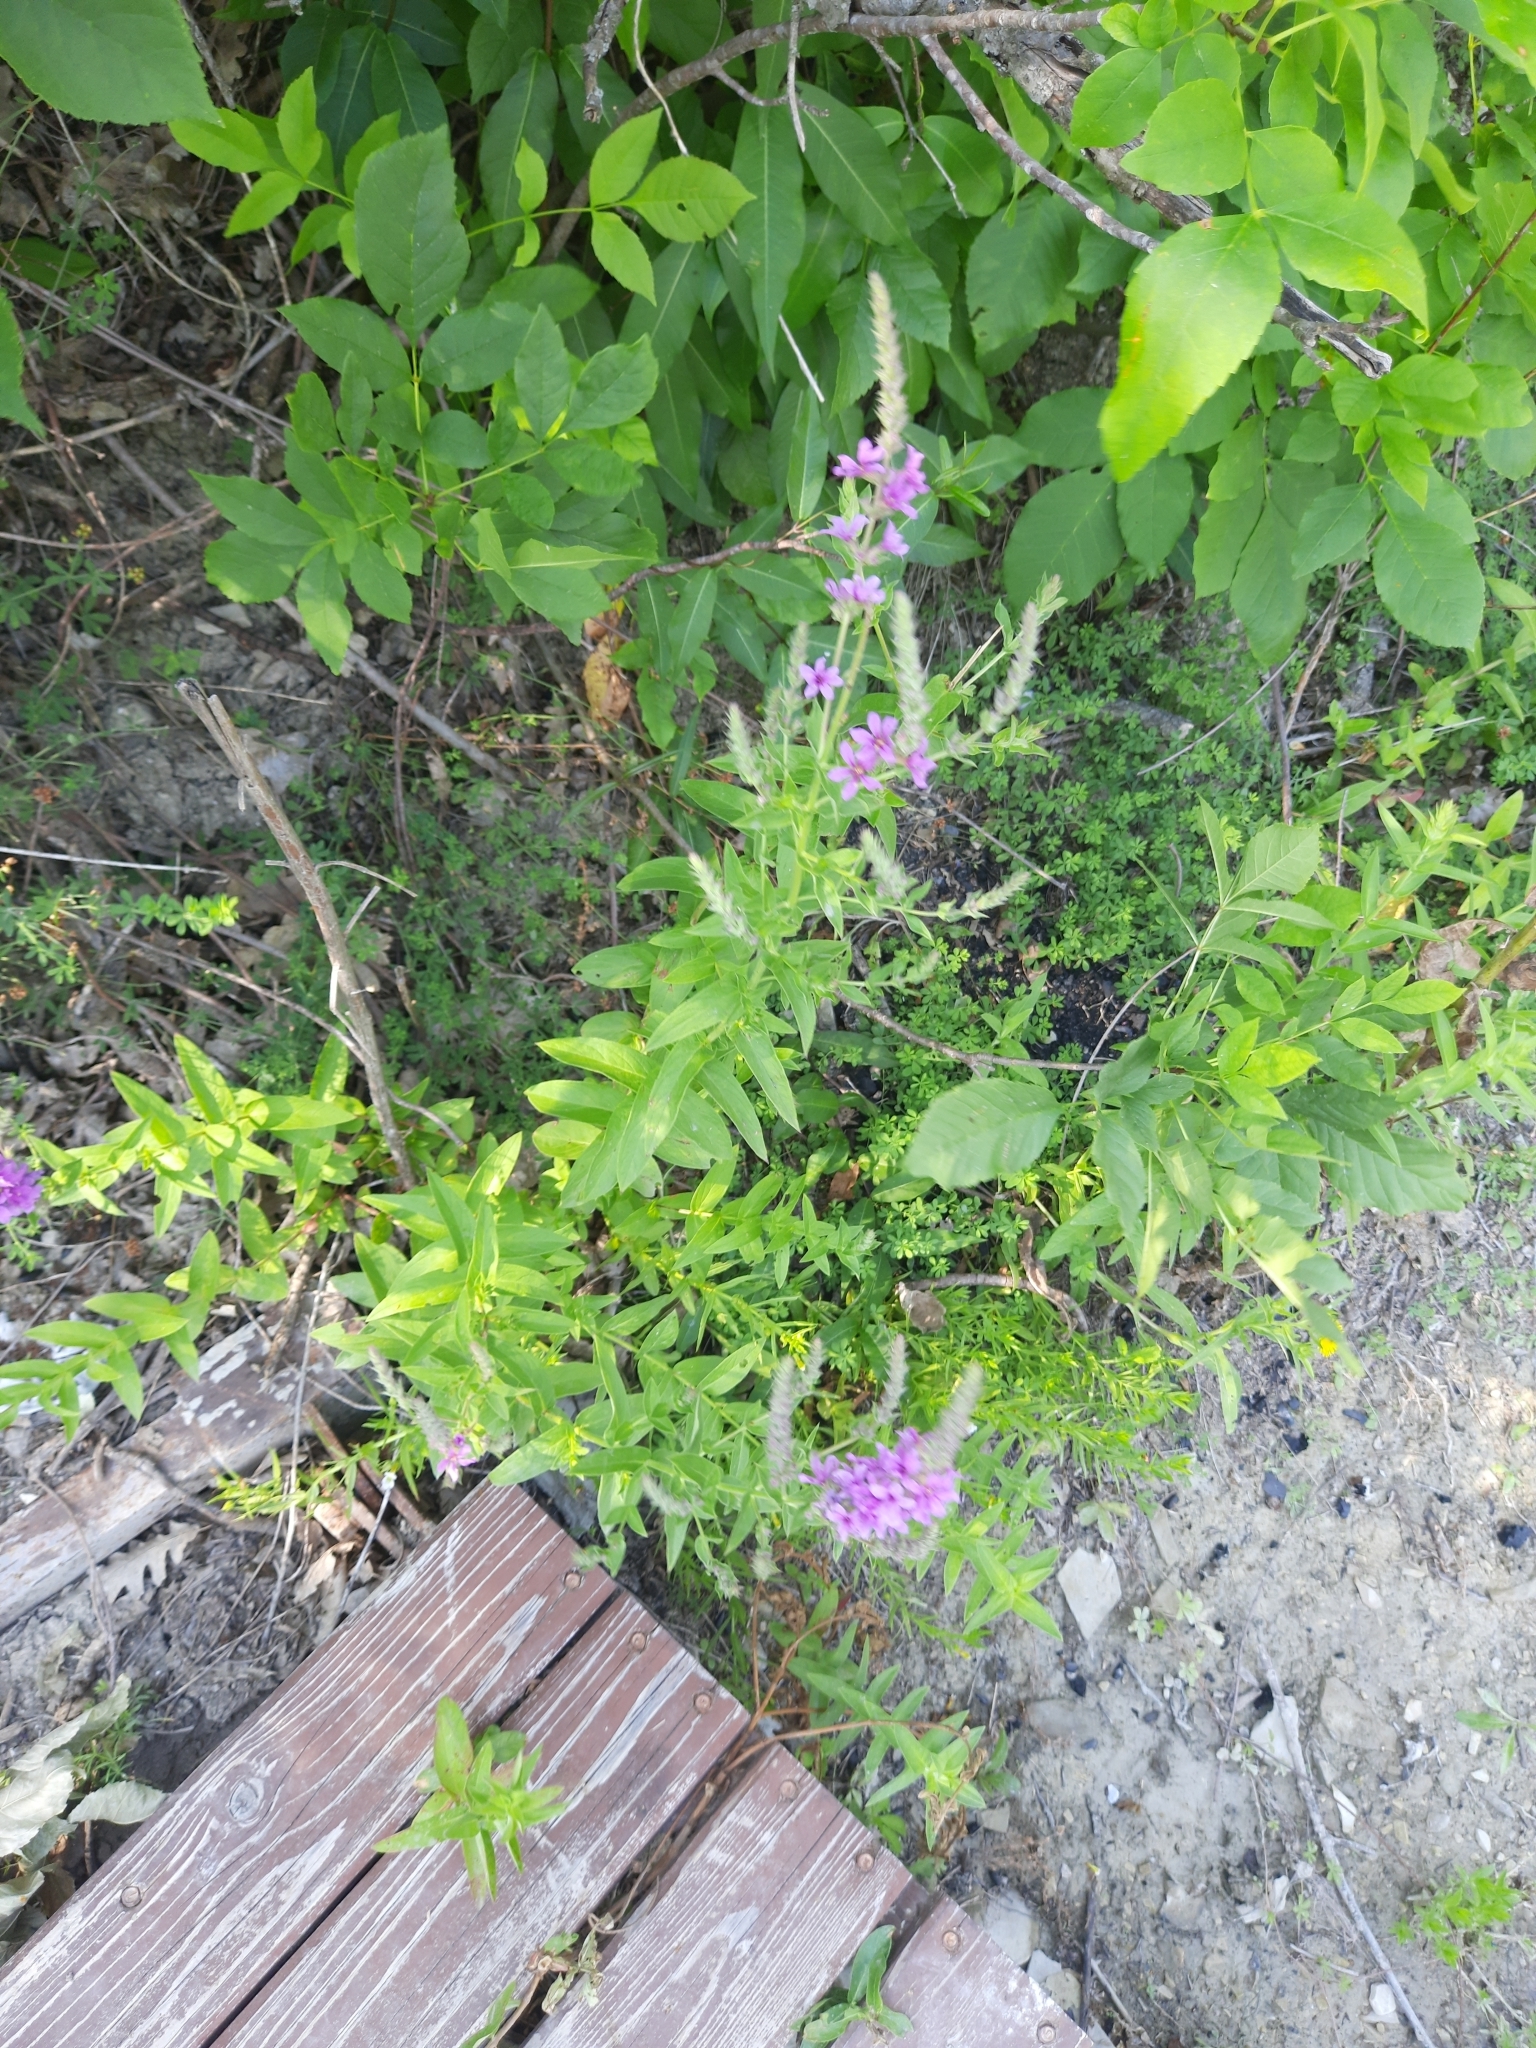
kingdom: Plantae
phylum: Tracheophyta
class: Magnoliopsida
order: Myrtales
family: Lythraceae
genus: Lythrum
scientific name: Lythrum salicaria
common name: Purple loosestrife
